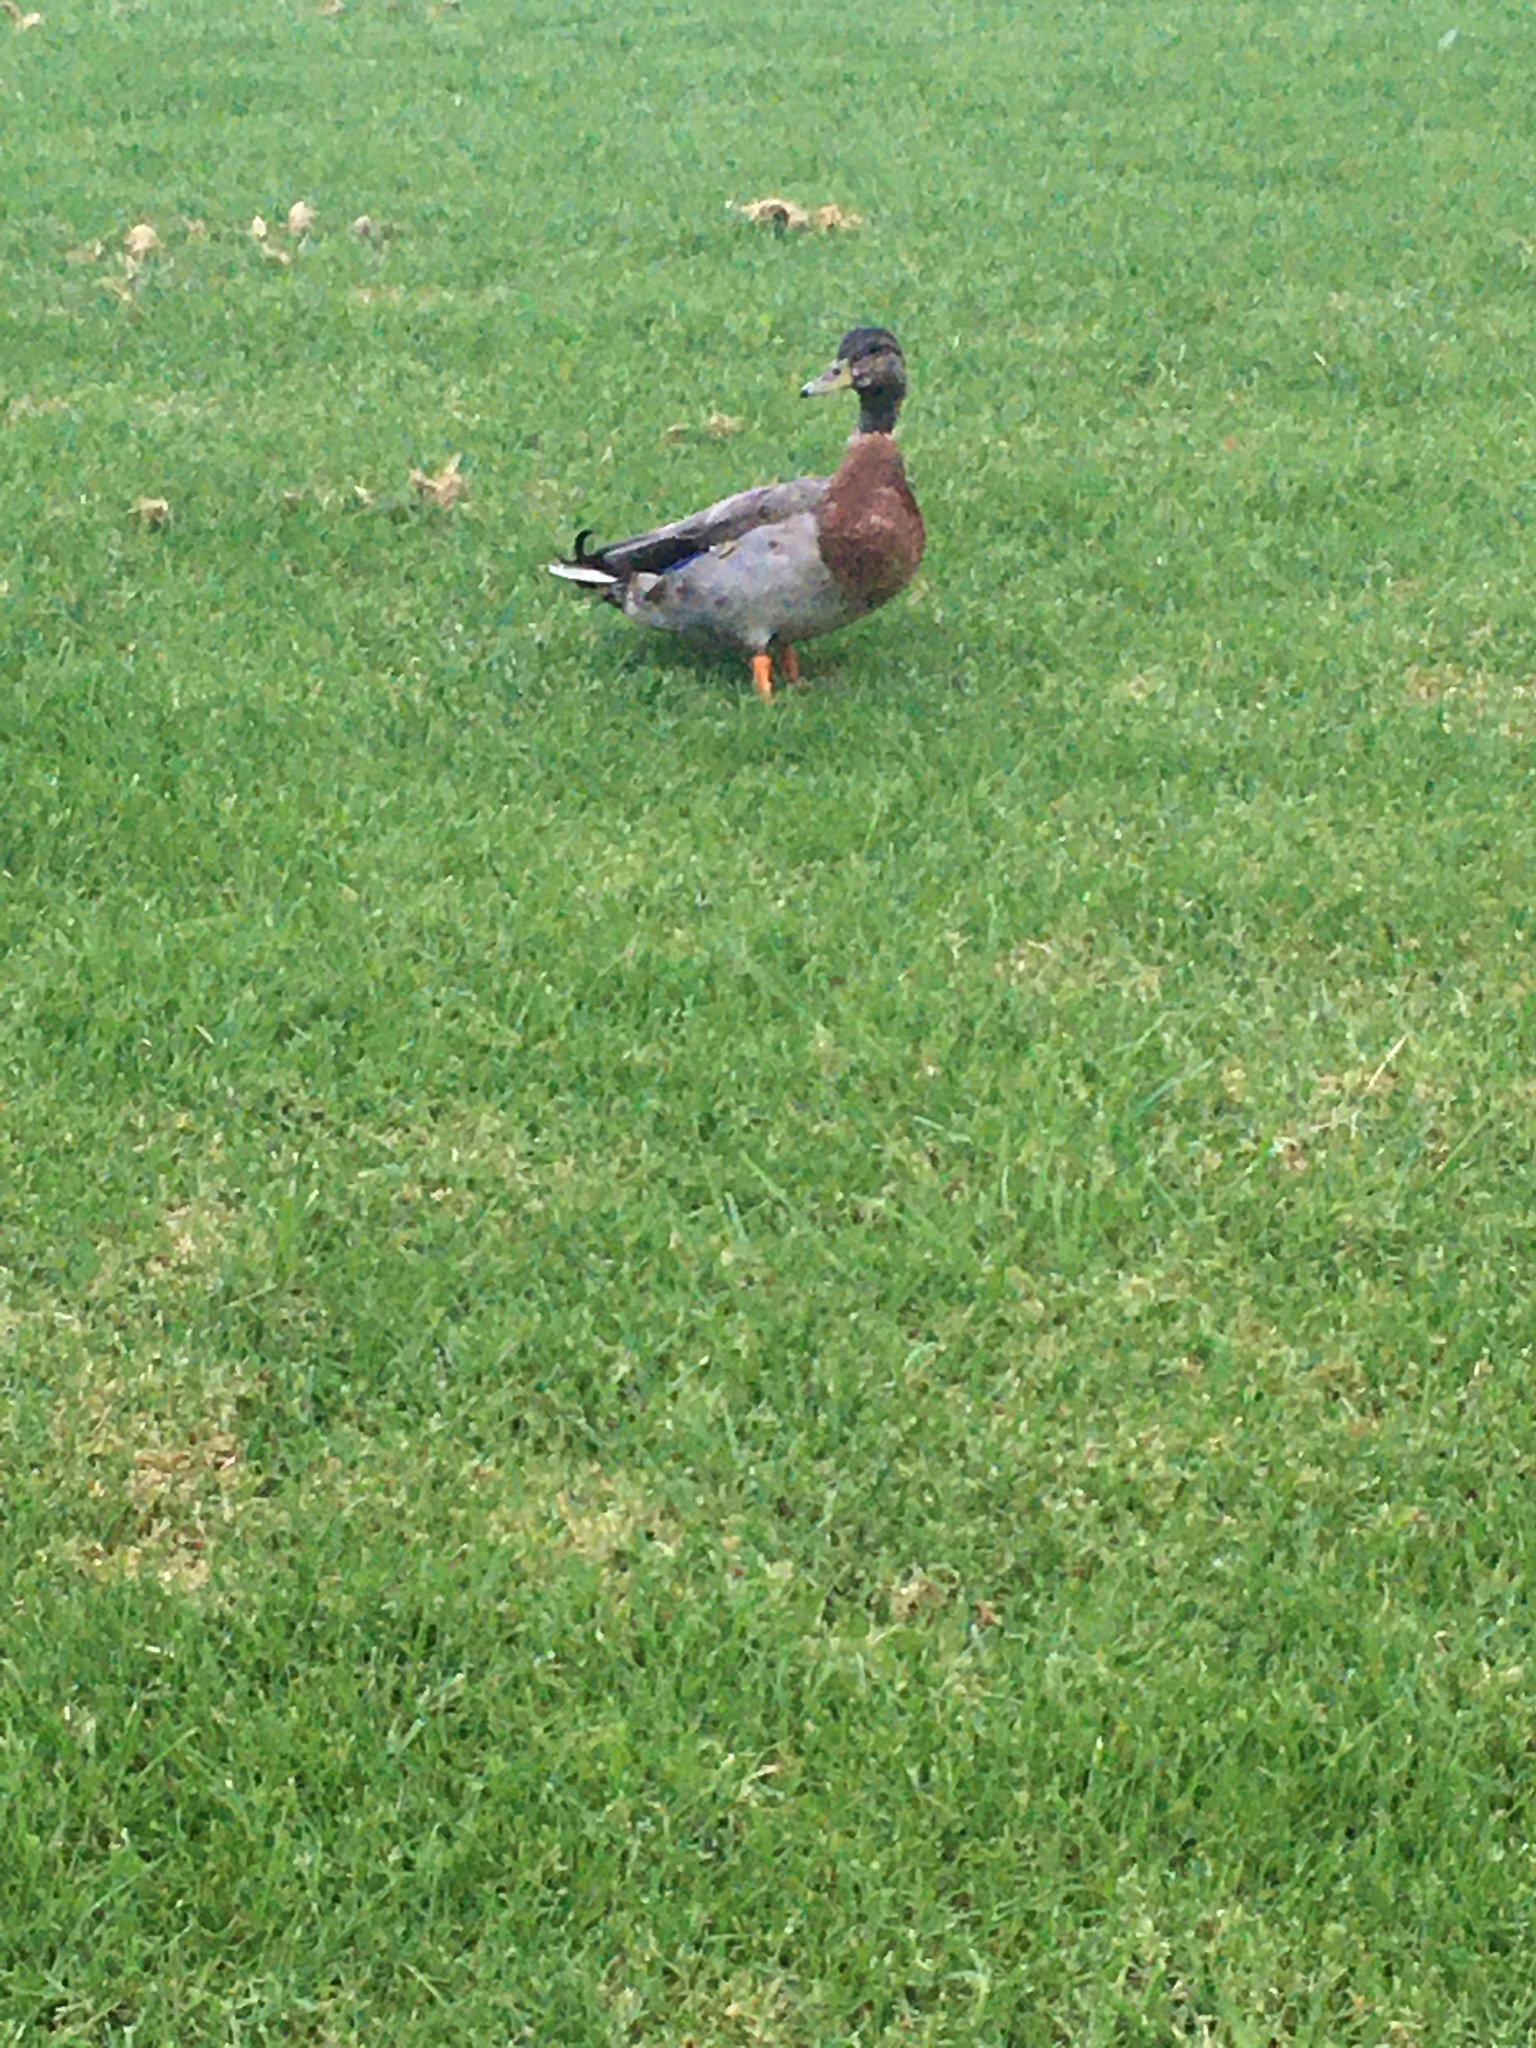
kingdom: Animalia
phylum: Chordata
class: Aves
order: Anseriformes
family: Anatidae
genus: Anas
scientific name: Anas
